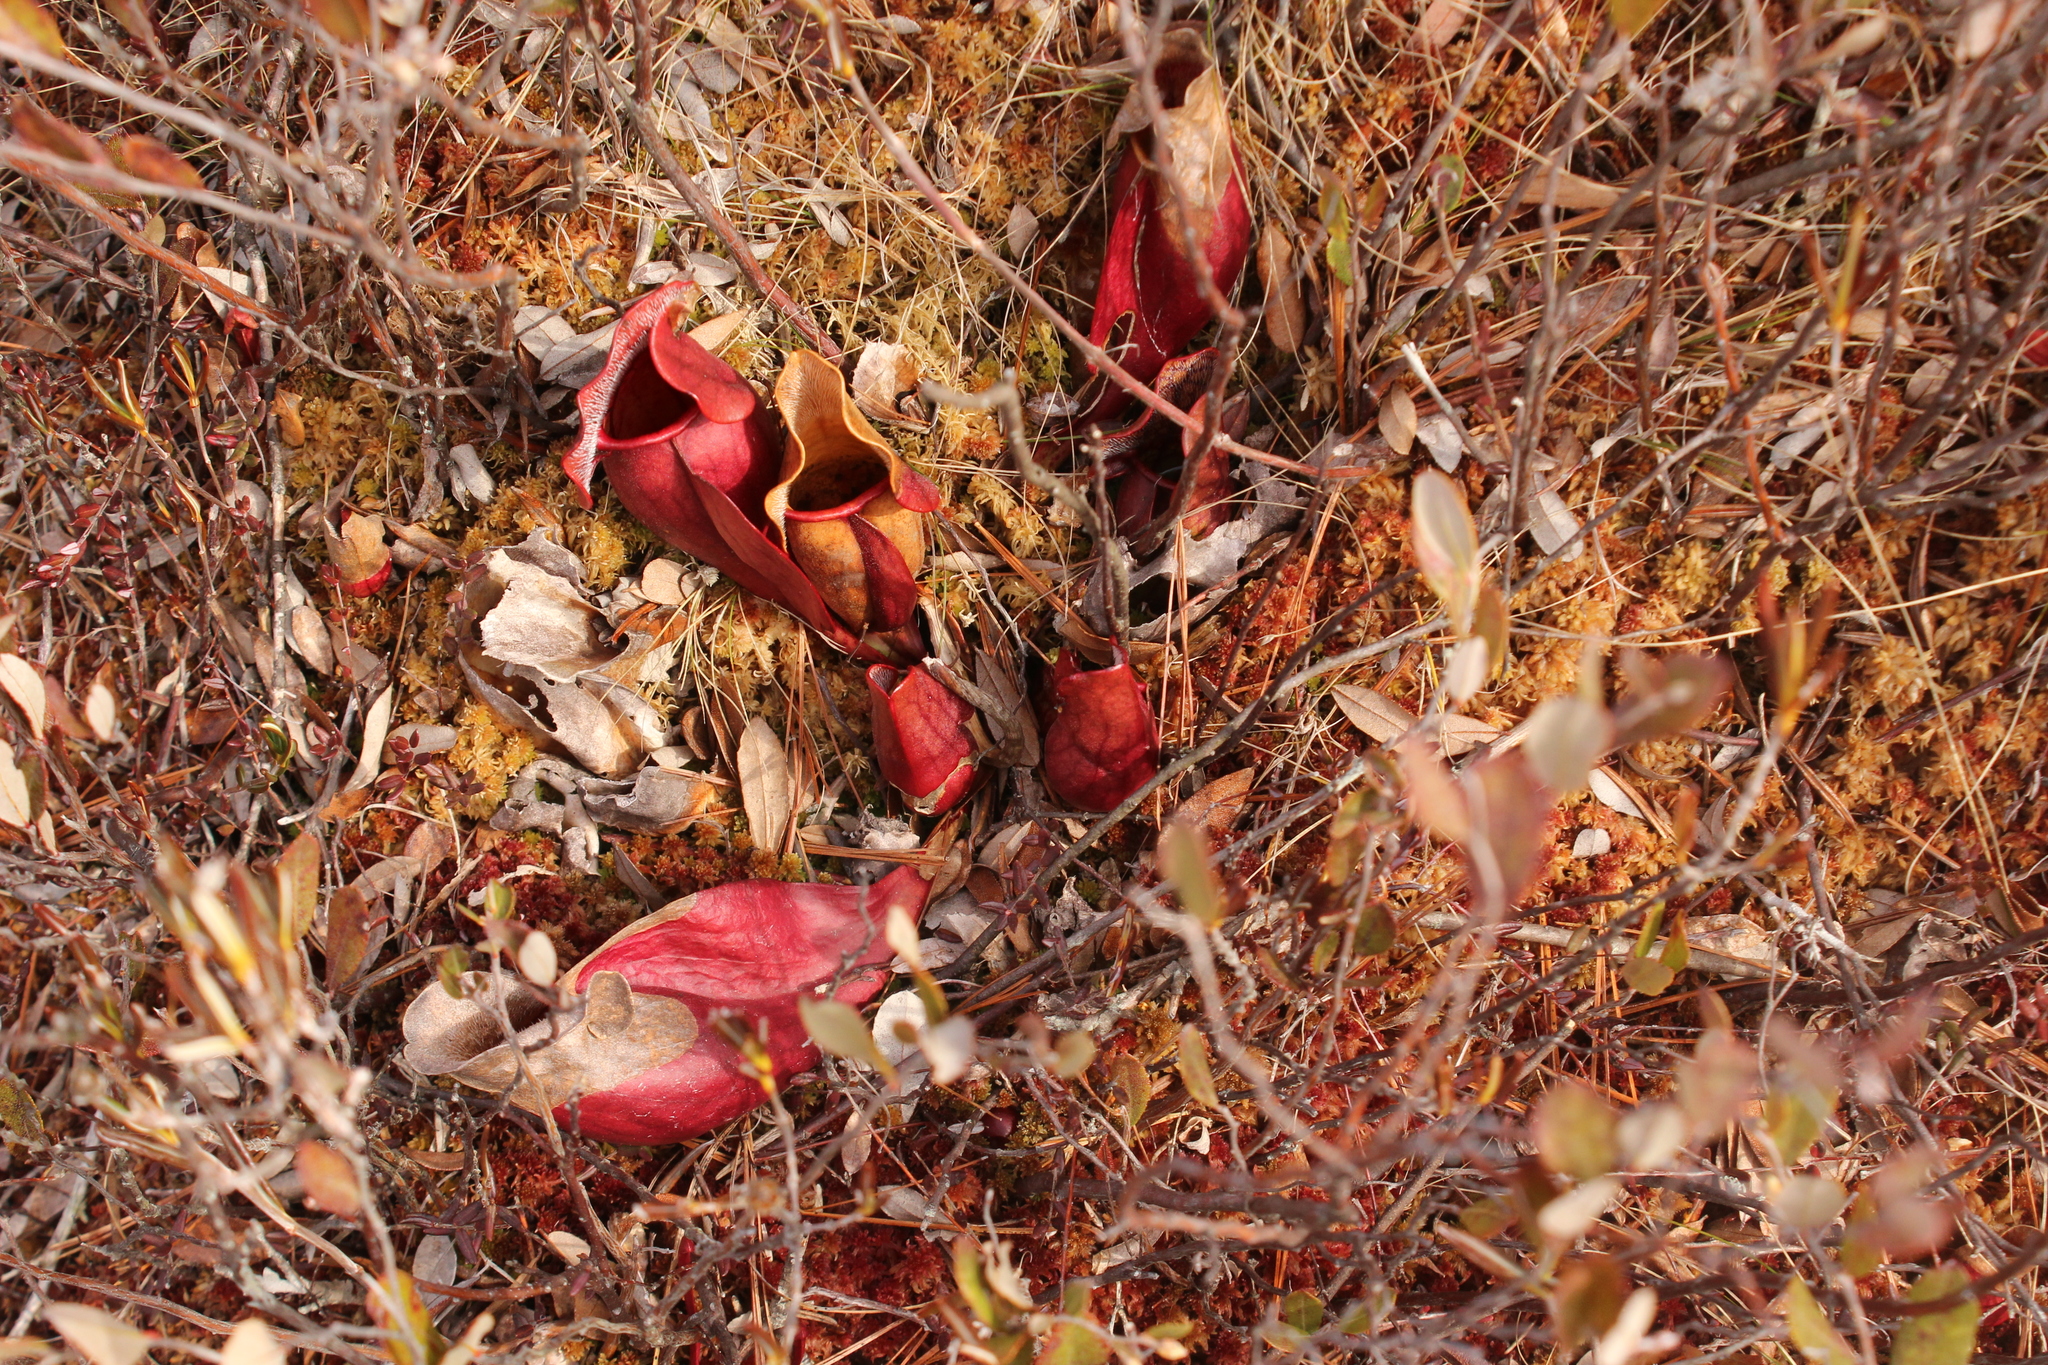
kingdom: Plantae
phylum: Tracheophyta
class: Magnoliopsida
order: Ericales
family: Sarraceniaceae
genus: Sarracenia
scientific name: Sarracenia purpurea
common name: Pitcherplant
